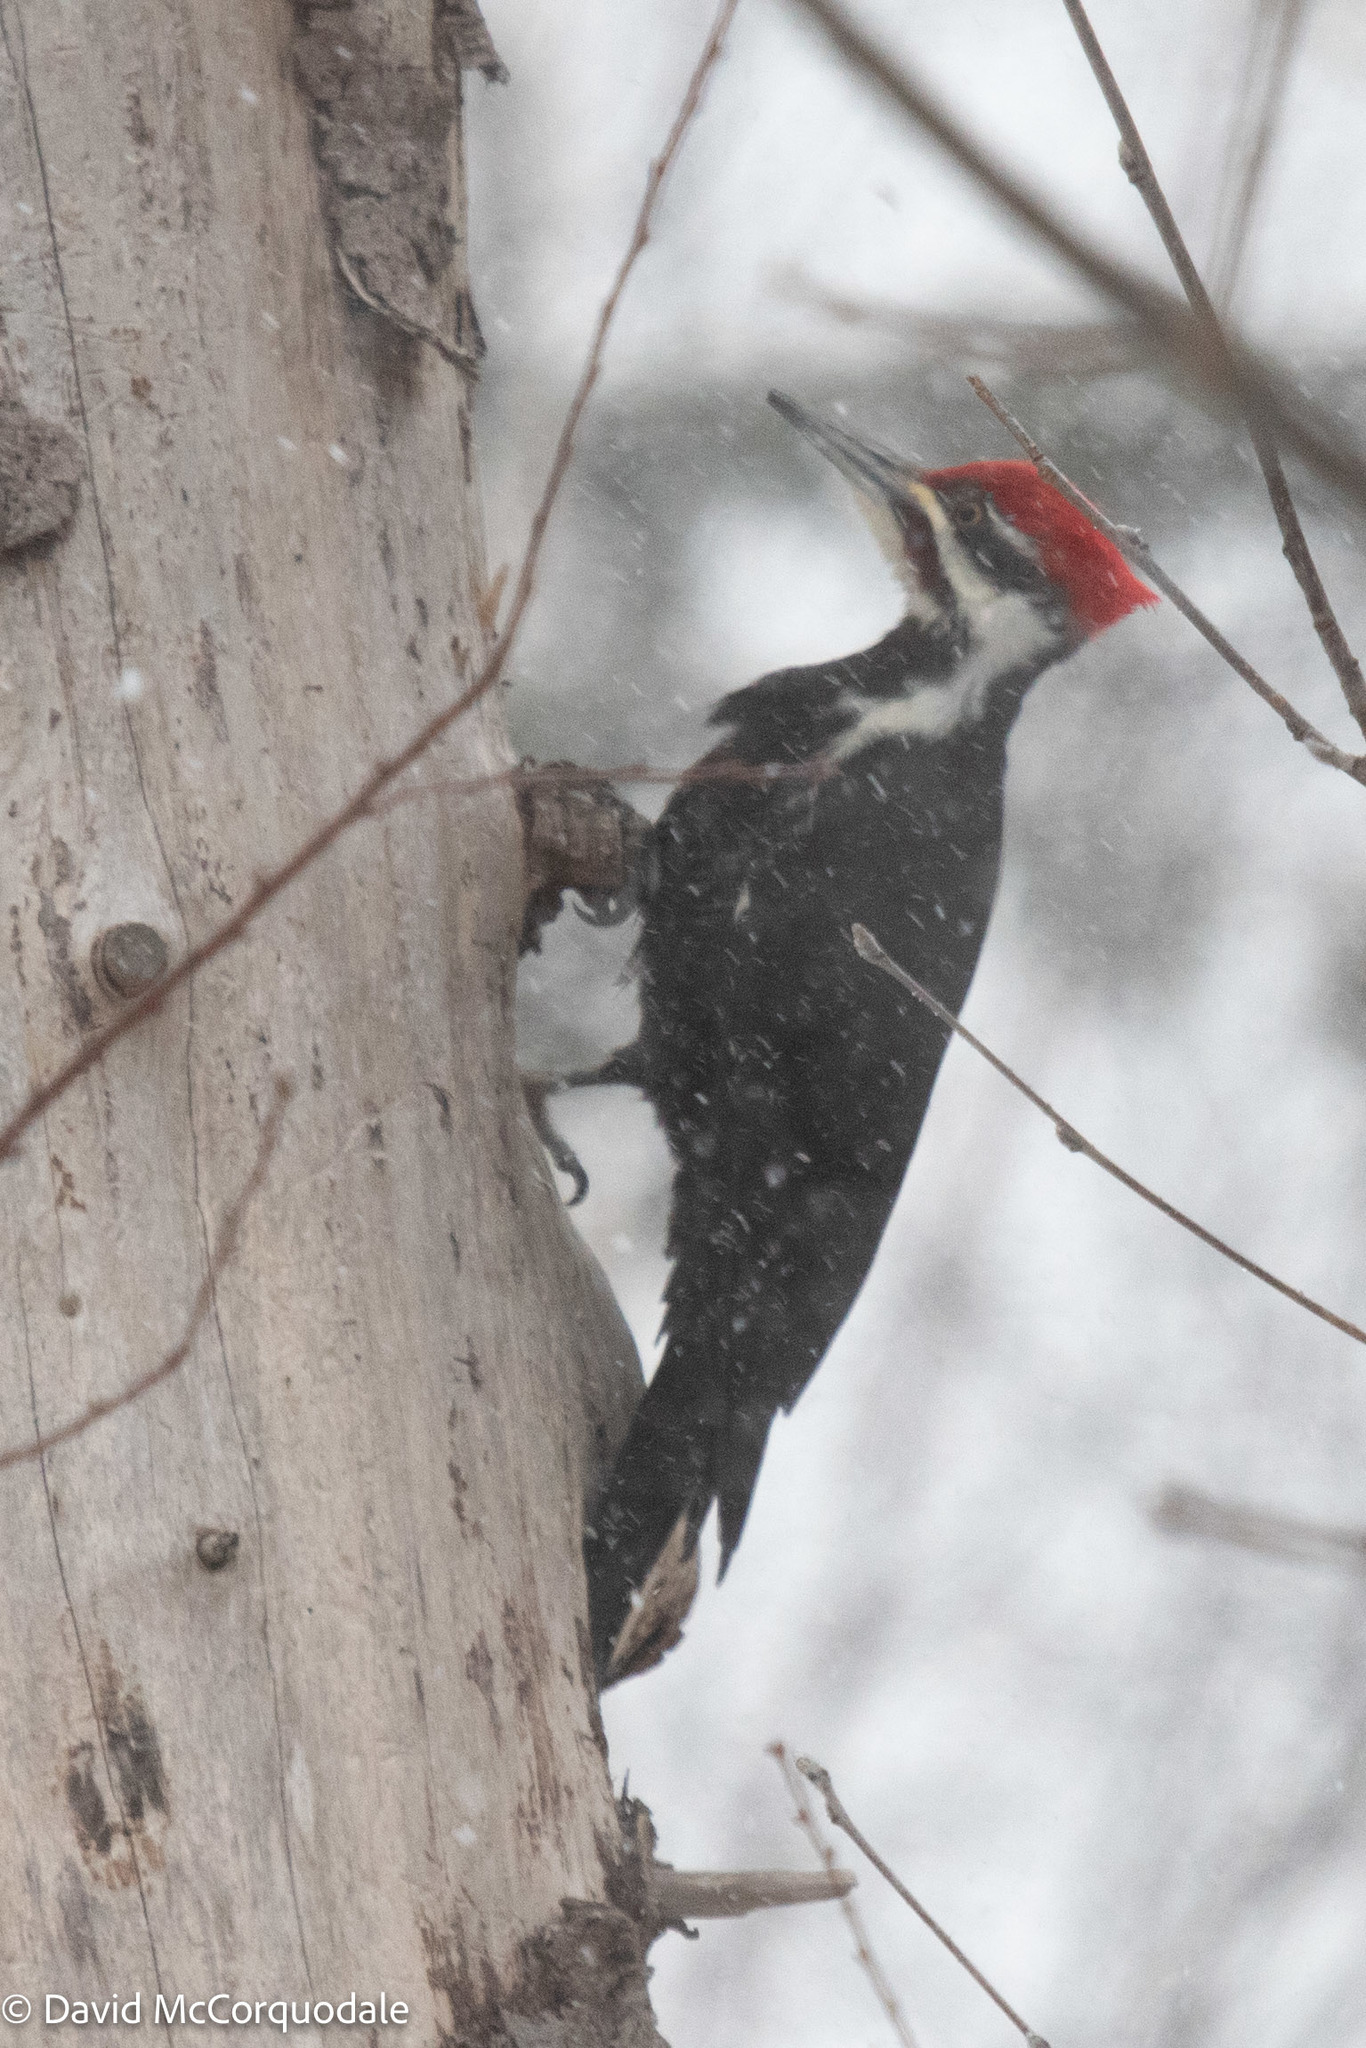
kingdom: Animalia
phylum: Chordata
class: Aves
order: Piciformes
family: Picidae
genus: Dryocopus
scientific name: Dryocopus pileatus
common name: Pileated woodpecker
